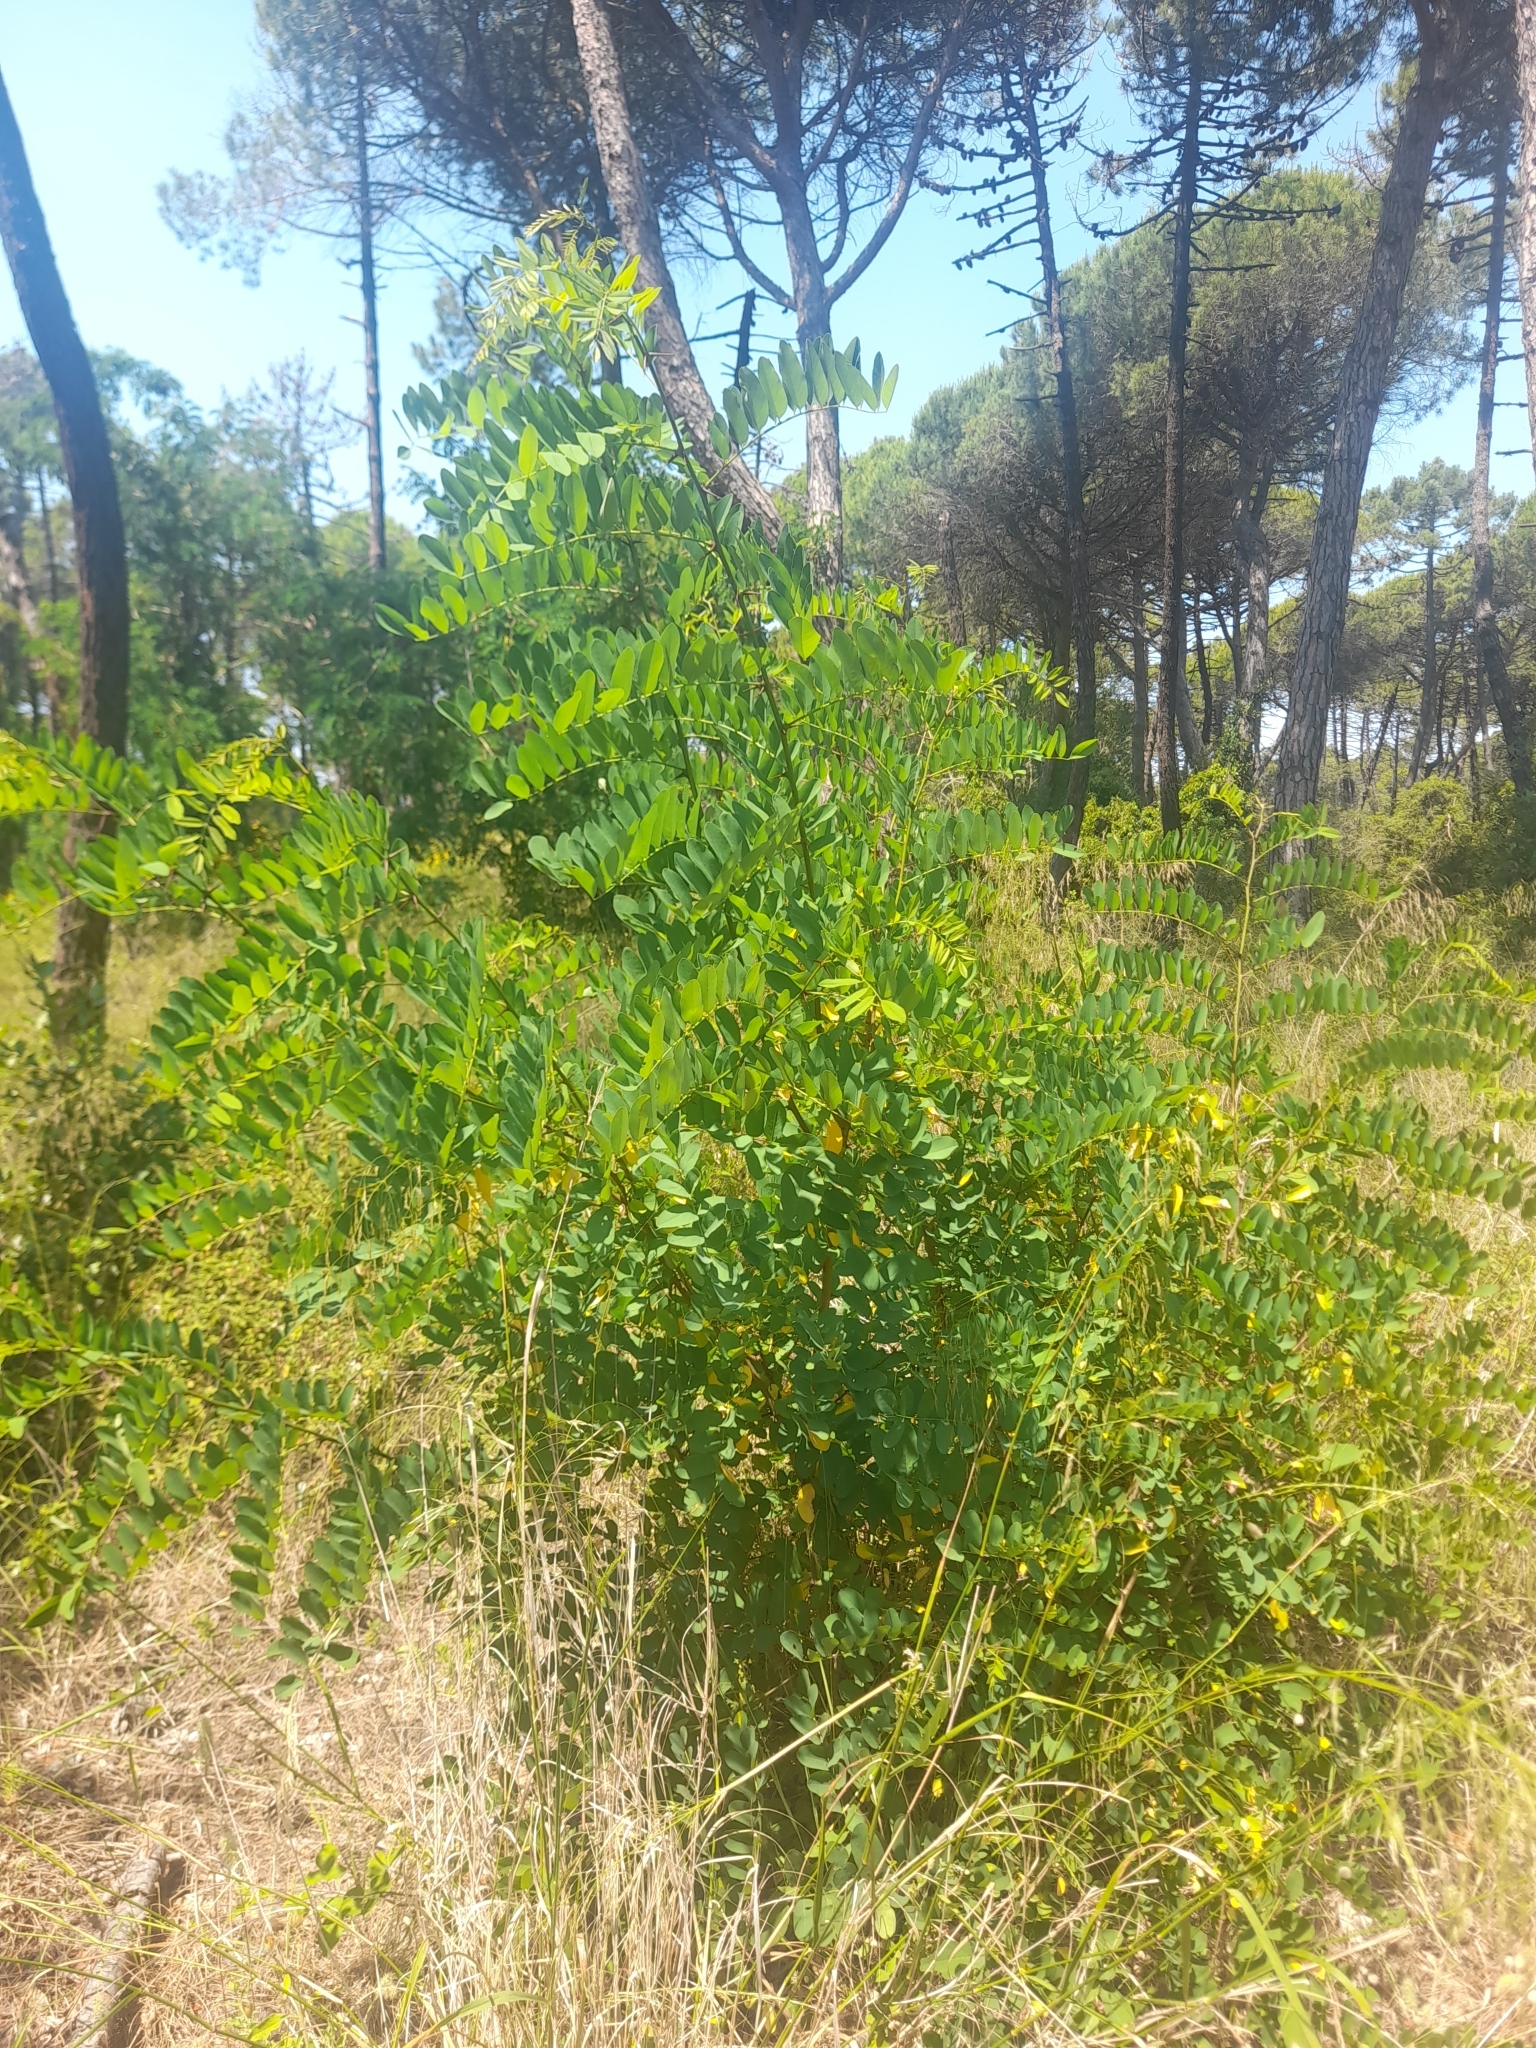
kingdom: Plantae
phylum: Tracheophyta
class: Magnoliopsida
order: Fabales
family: Fabaceae
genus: Robinia
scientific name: Robinia pseudoacacia
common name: Black locust
